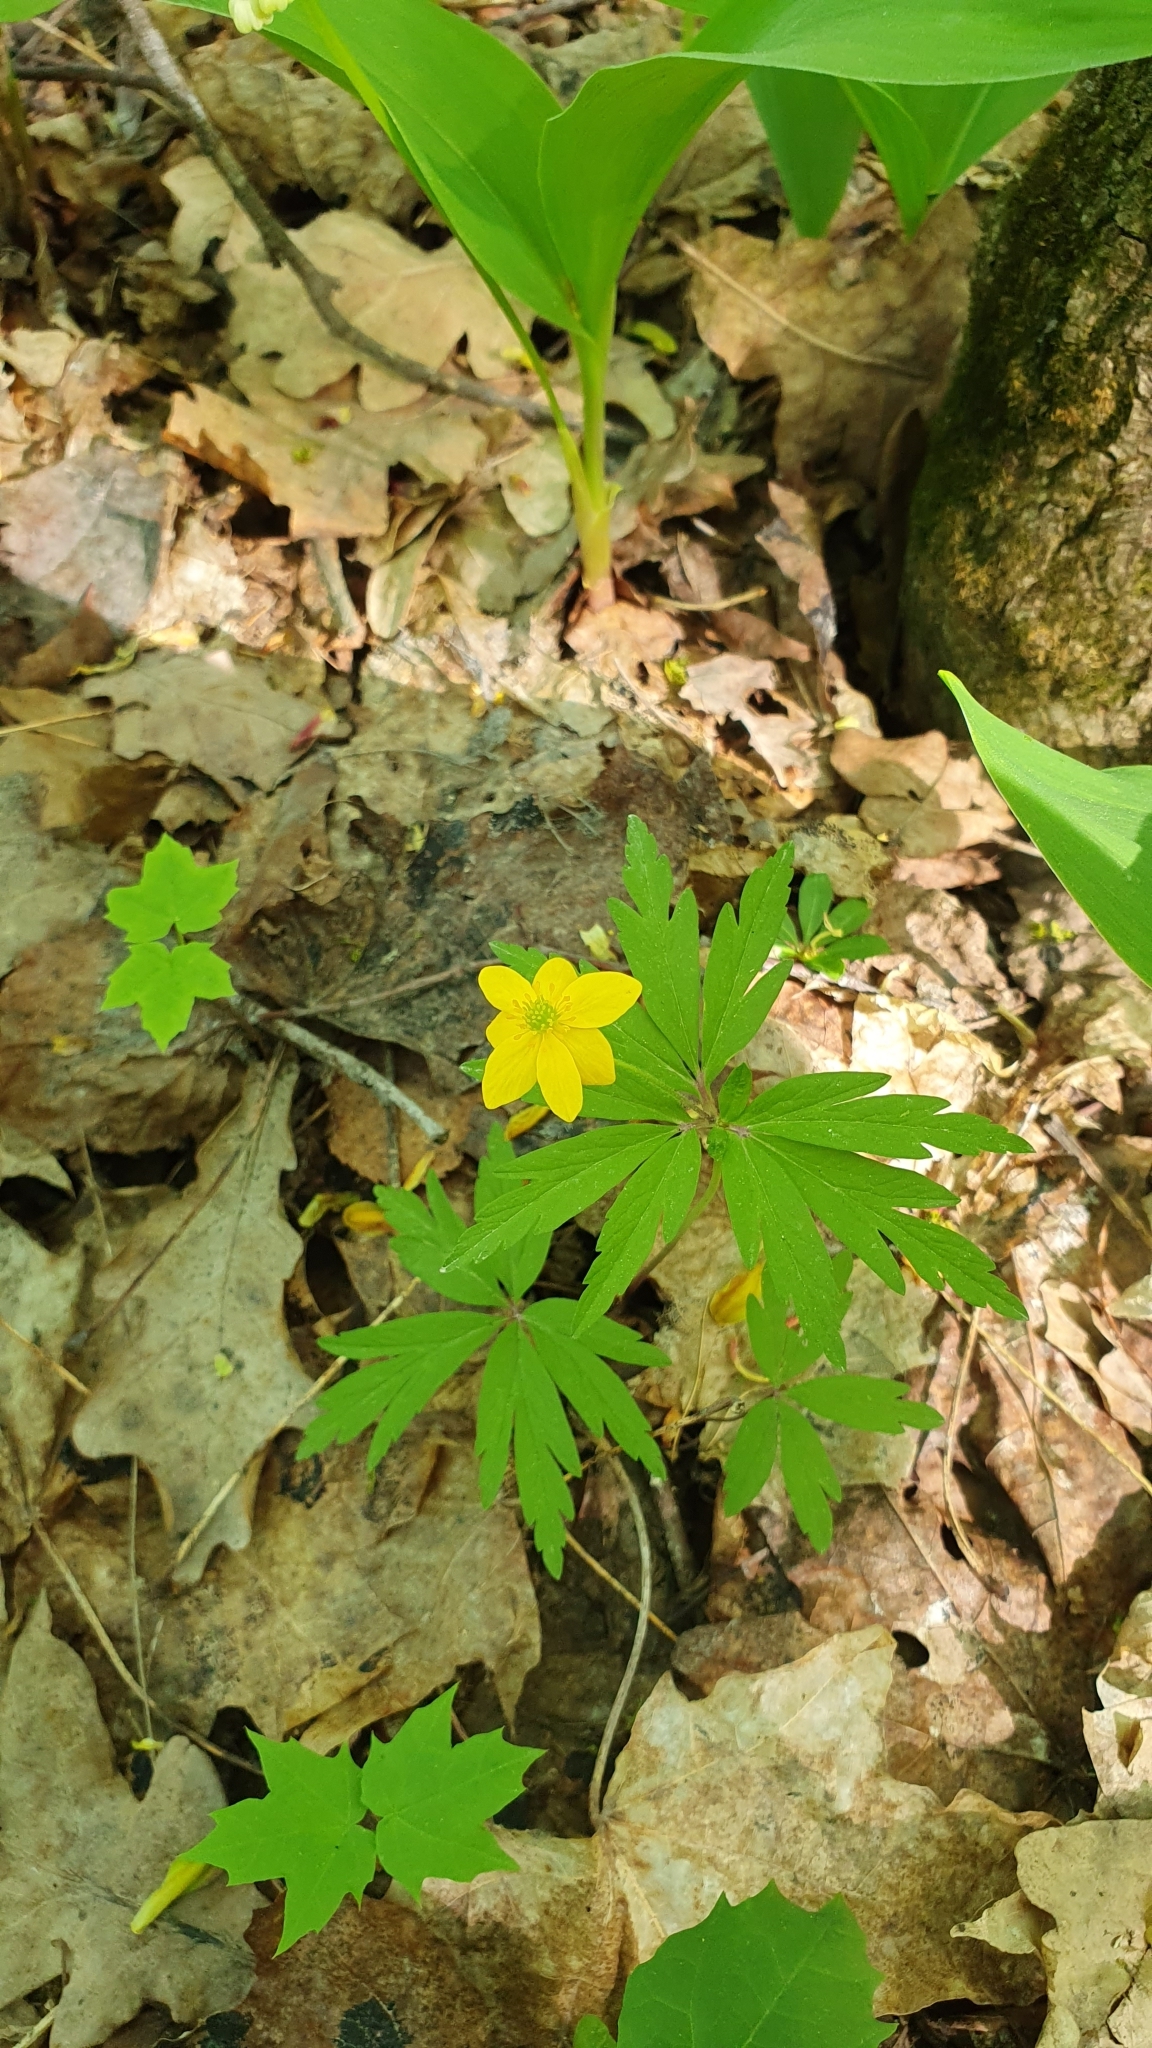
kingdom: Plantae
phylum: Tracheophyta
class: Magnoliopsida
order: Ranunculales
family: Ranunculaceae
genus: Anemone
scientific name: Anemone ranunculoides
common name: Yellow anemone
